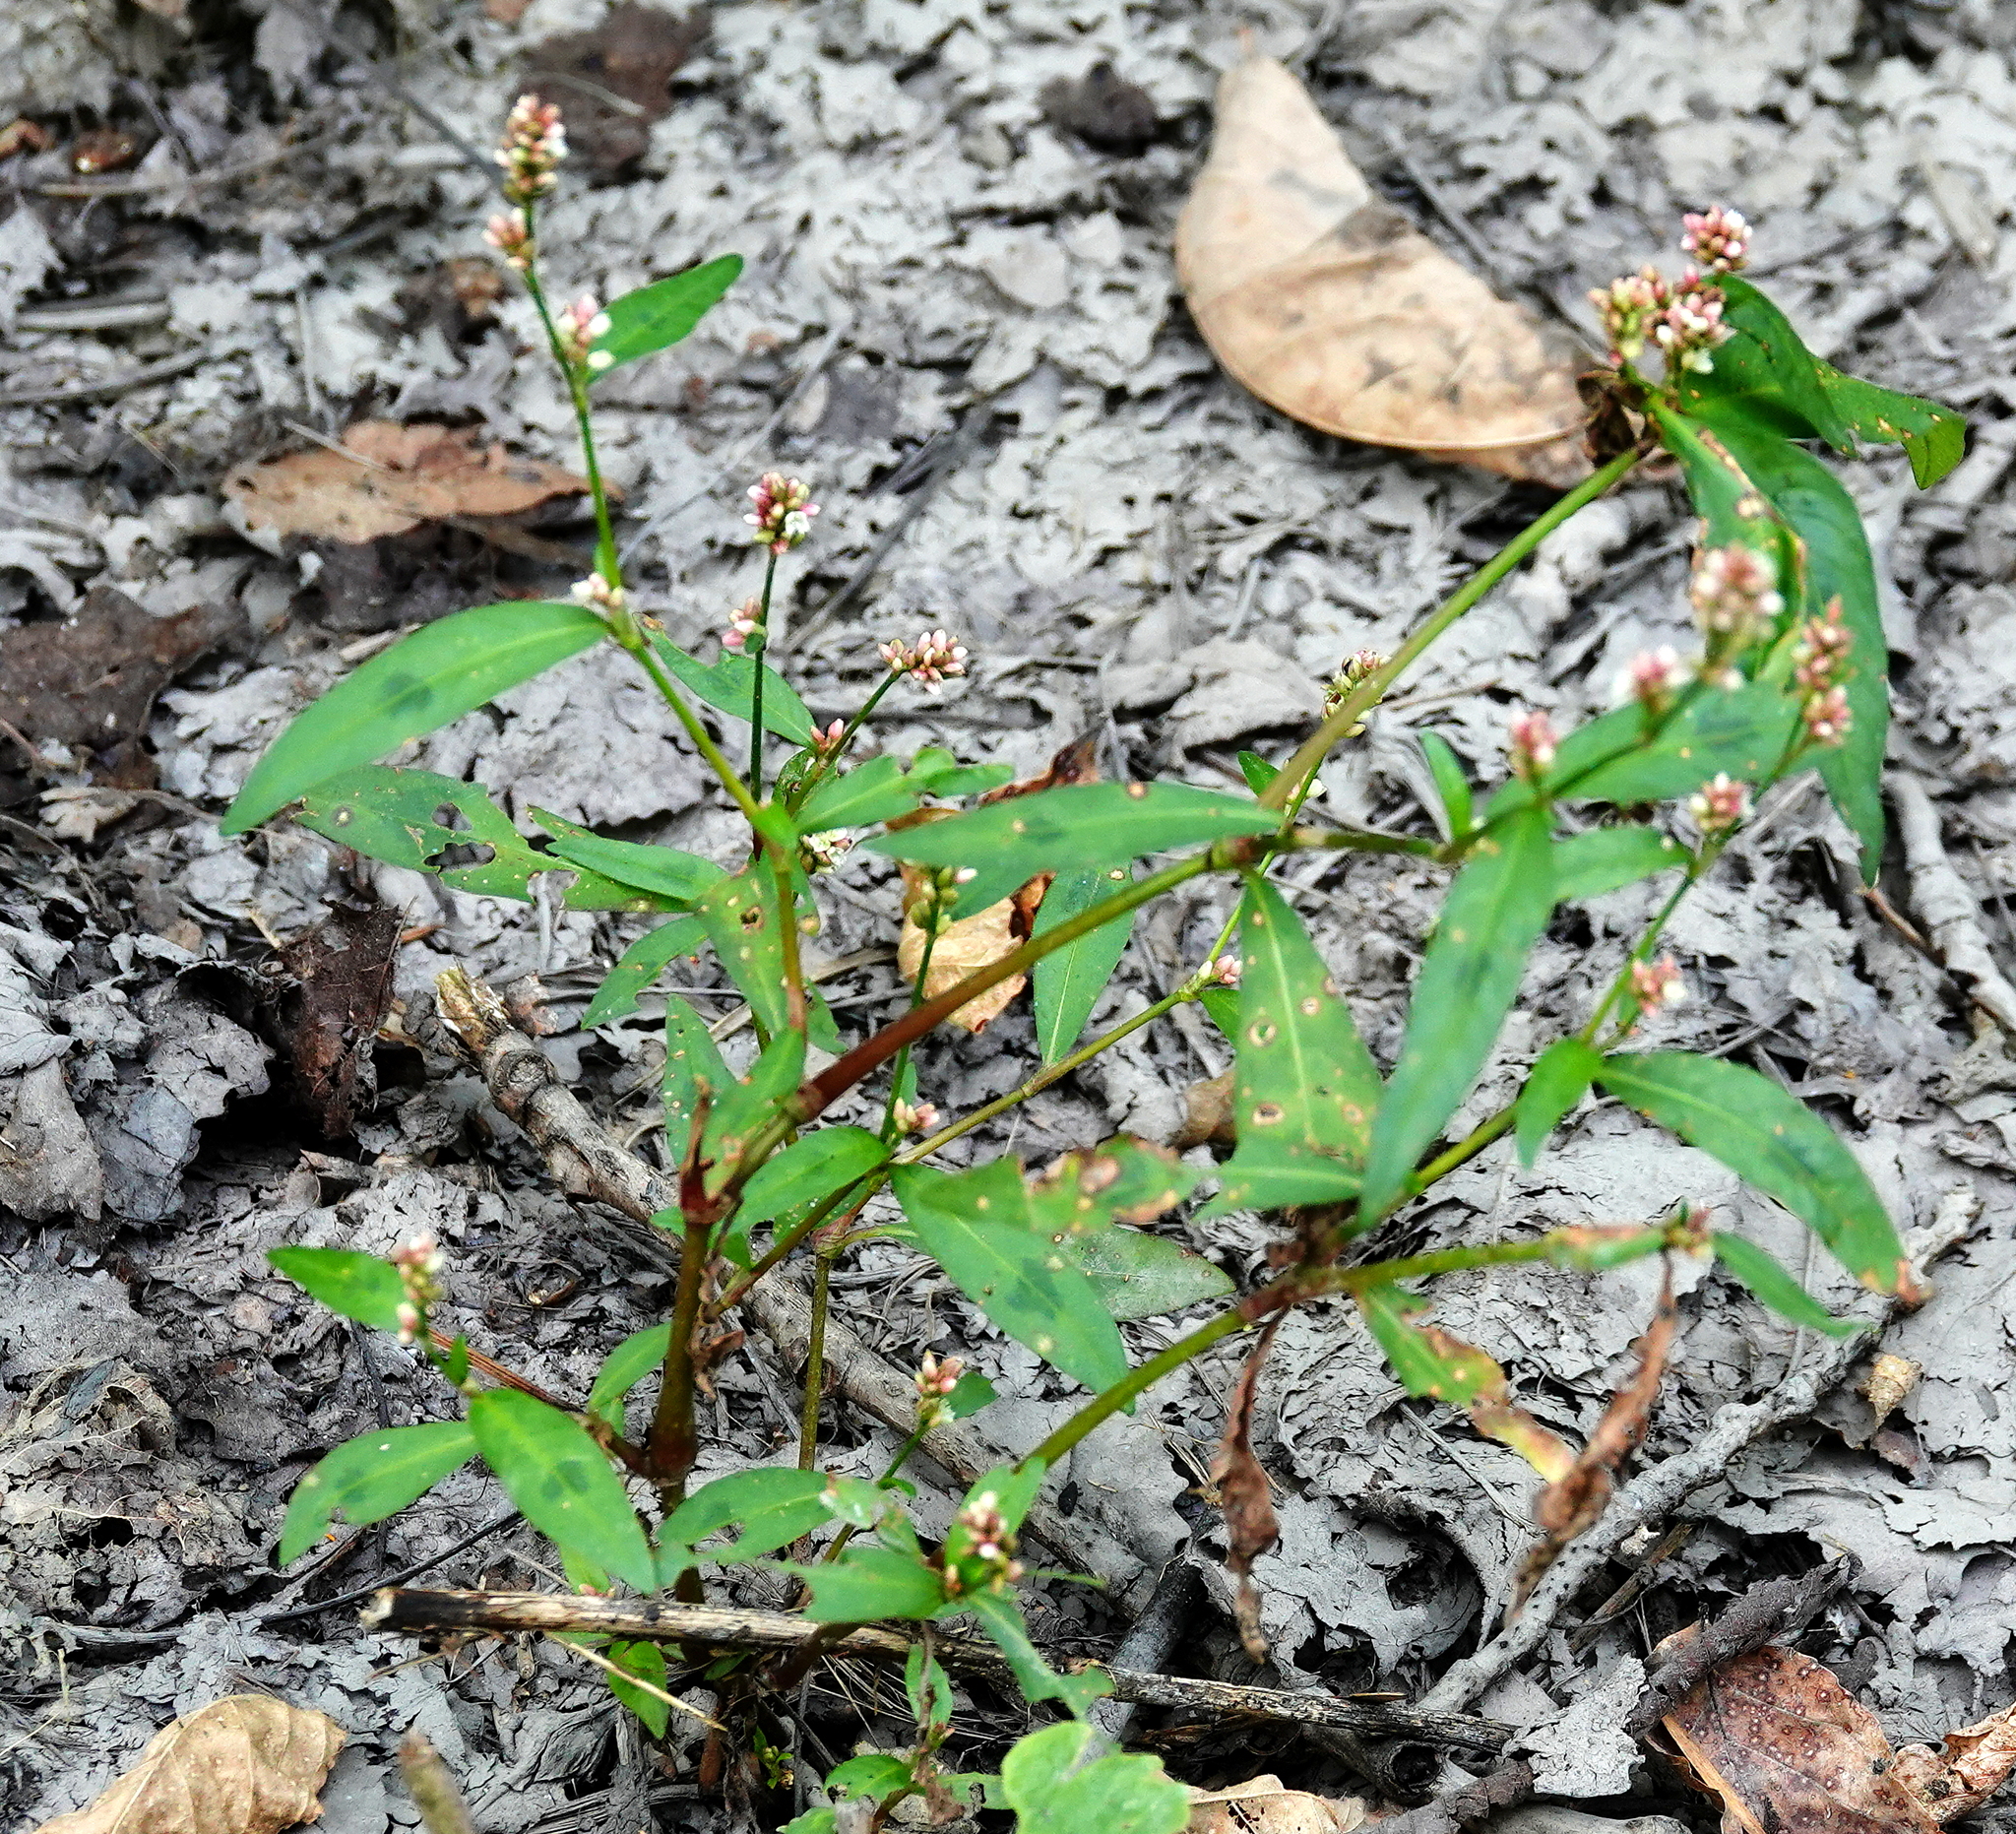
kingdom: Plantae
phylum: Tracheophyta
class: Magnoliopsida
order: Caryophyllales
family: Polygonaceae
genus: Persicaria
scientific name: Persicaria maculosa
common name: Redshank
